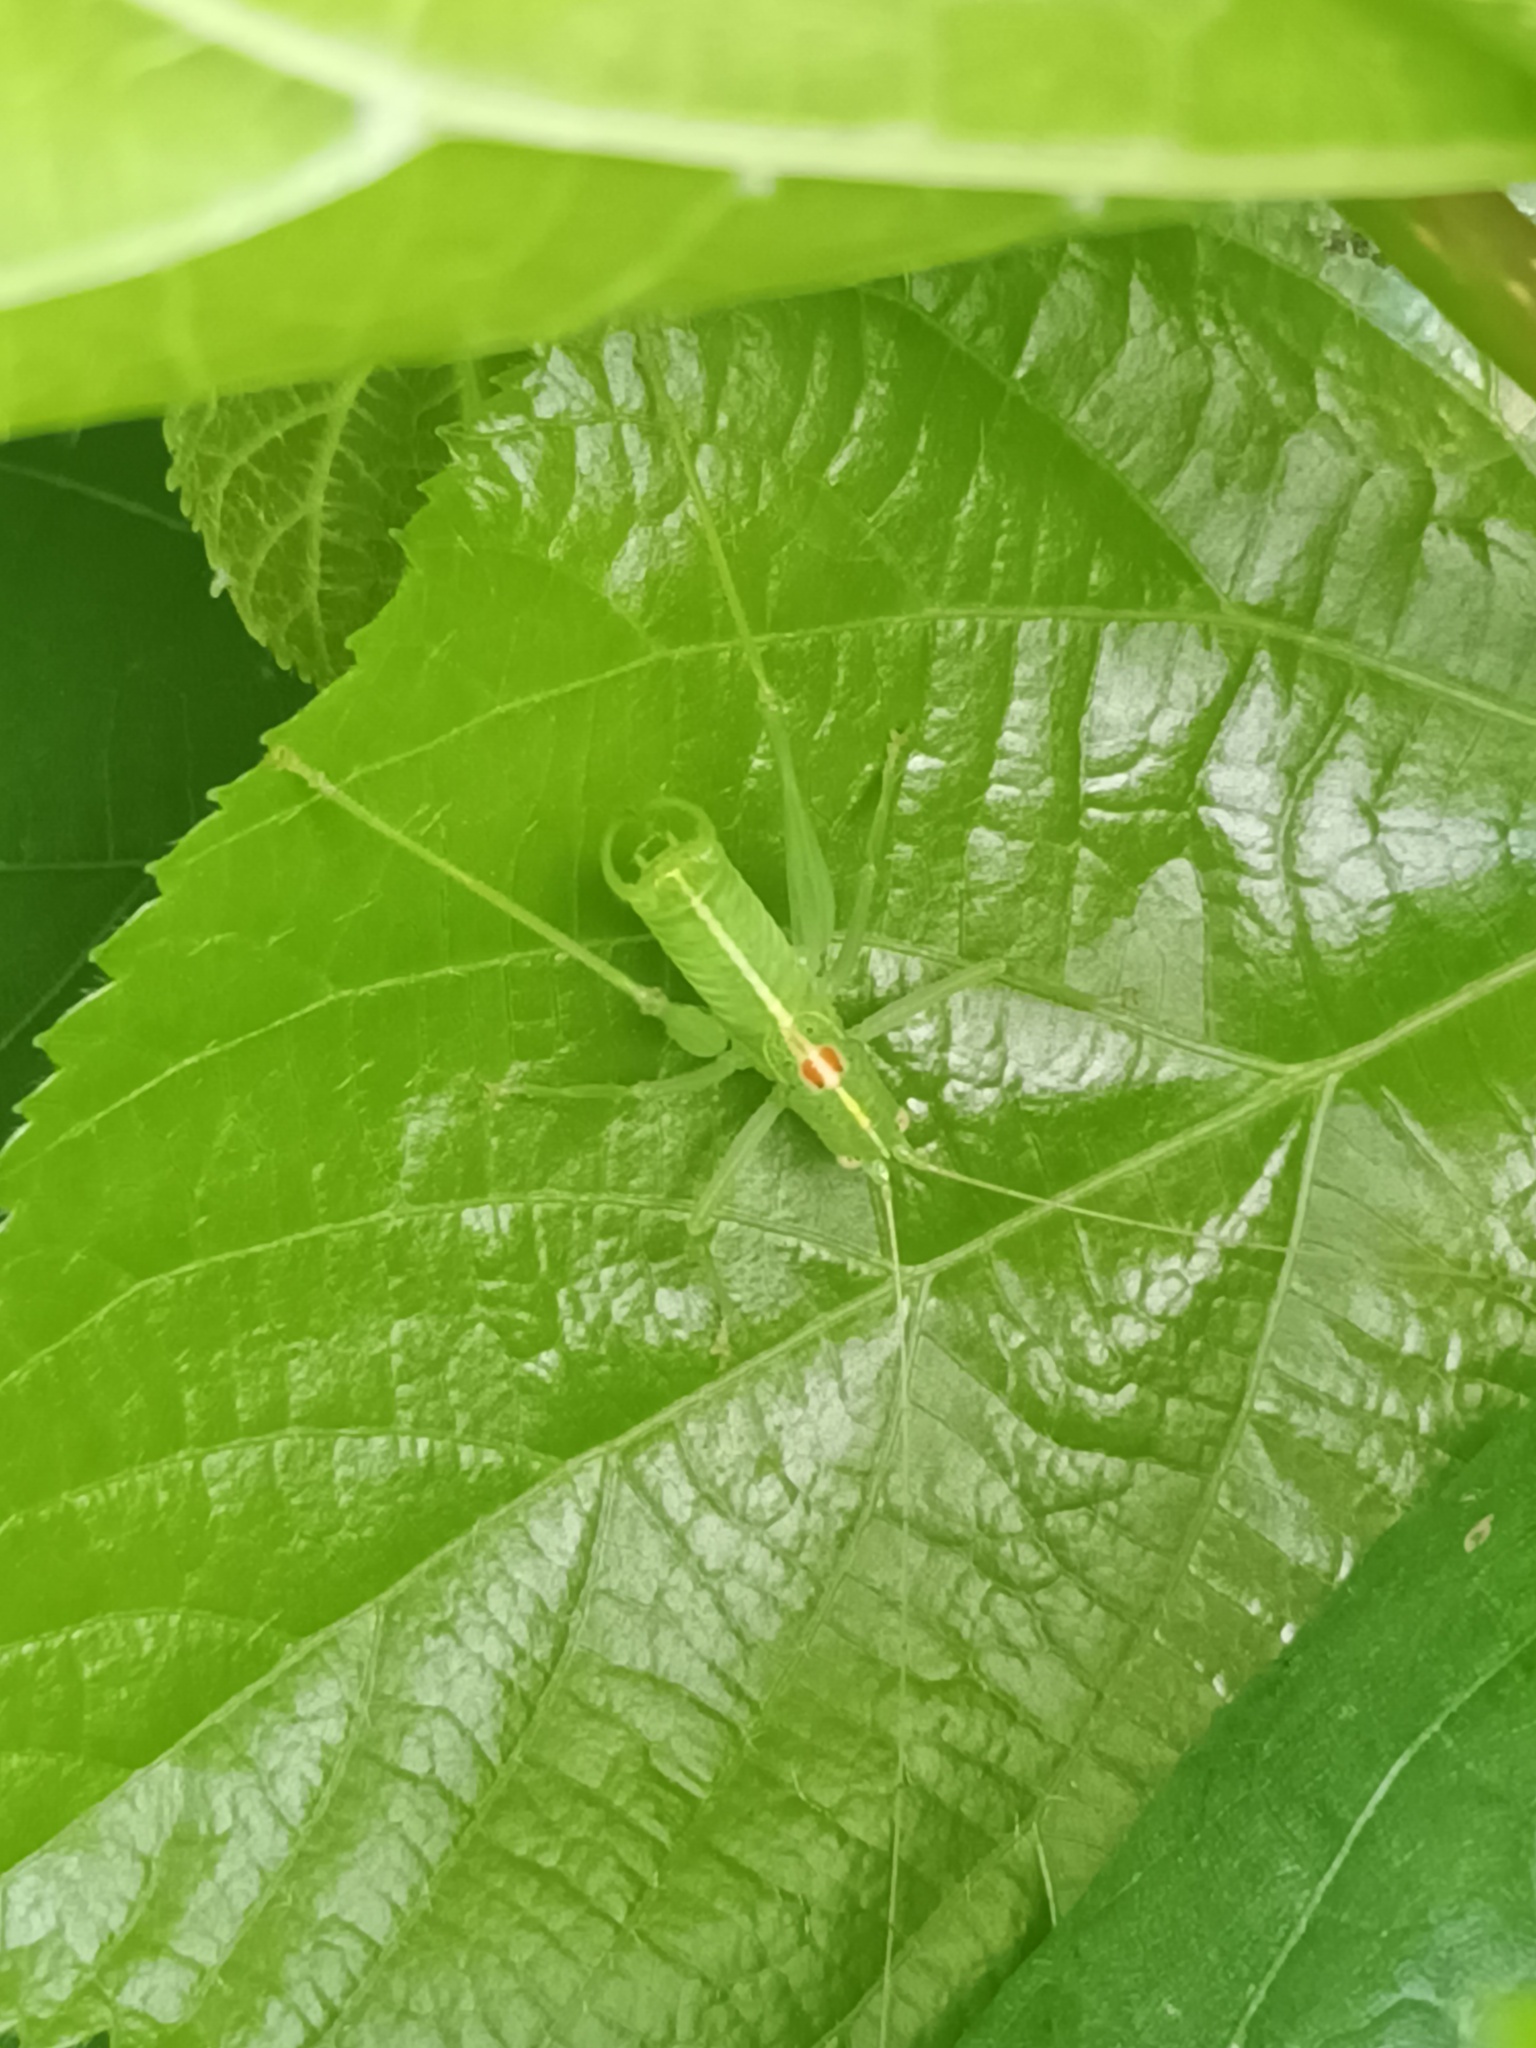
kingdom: Animalia
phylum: Arthropoda
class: Insecta
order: Orthoptera
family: Tettigoniidae
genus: Meconema
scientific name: Meconema meridionale
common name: Southern oak bush-cricket
